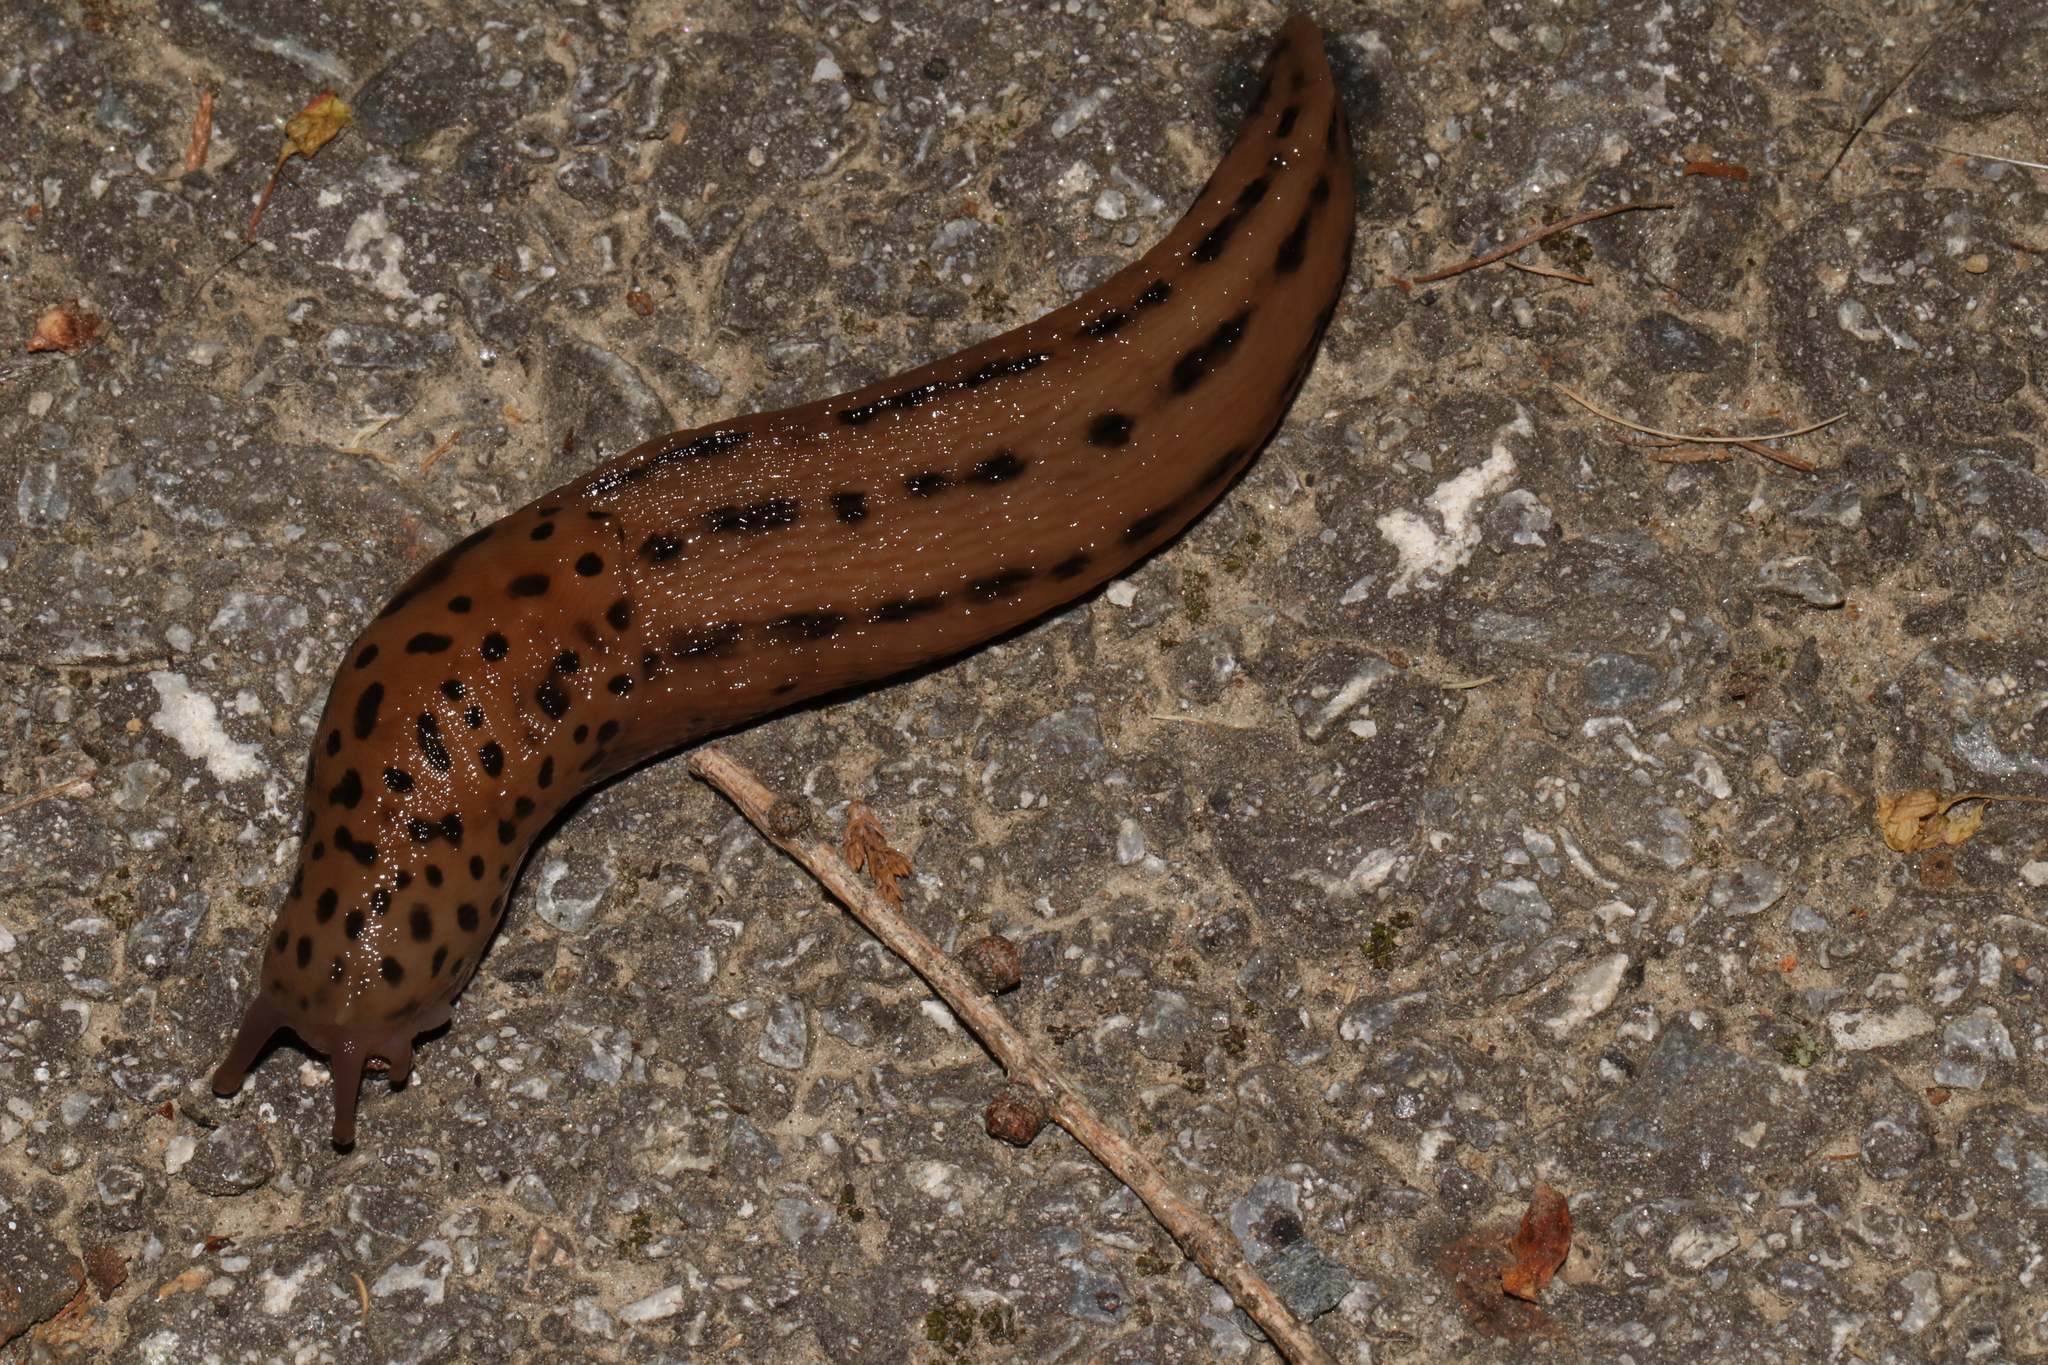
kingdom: Animalia
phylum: Mollusca
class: Gastropoda
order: Stylommatophora
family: Limacidae
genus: Limax
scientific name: Limax maximus
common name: Great grey slug
